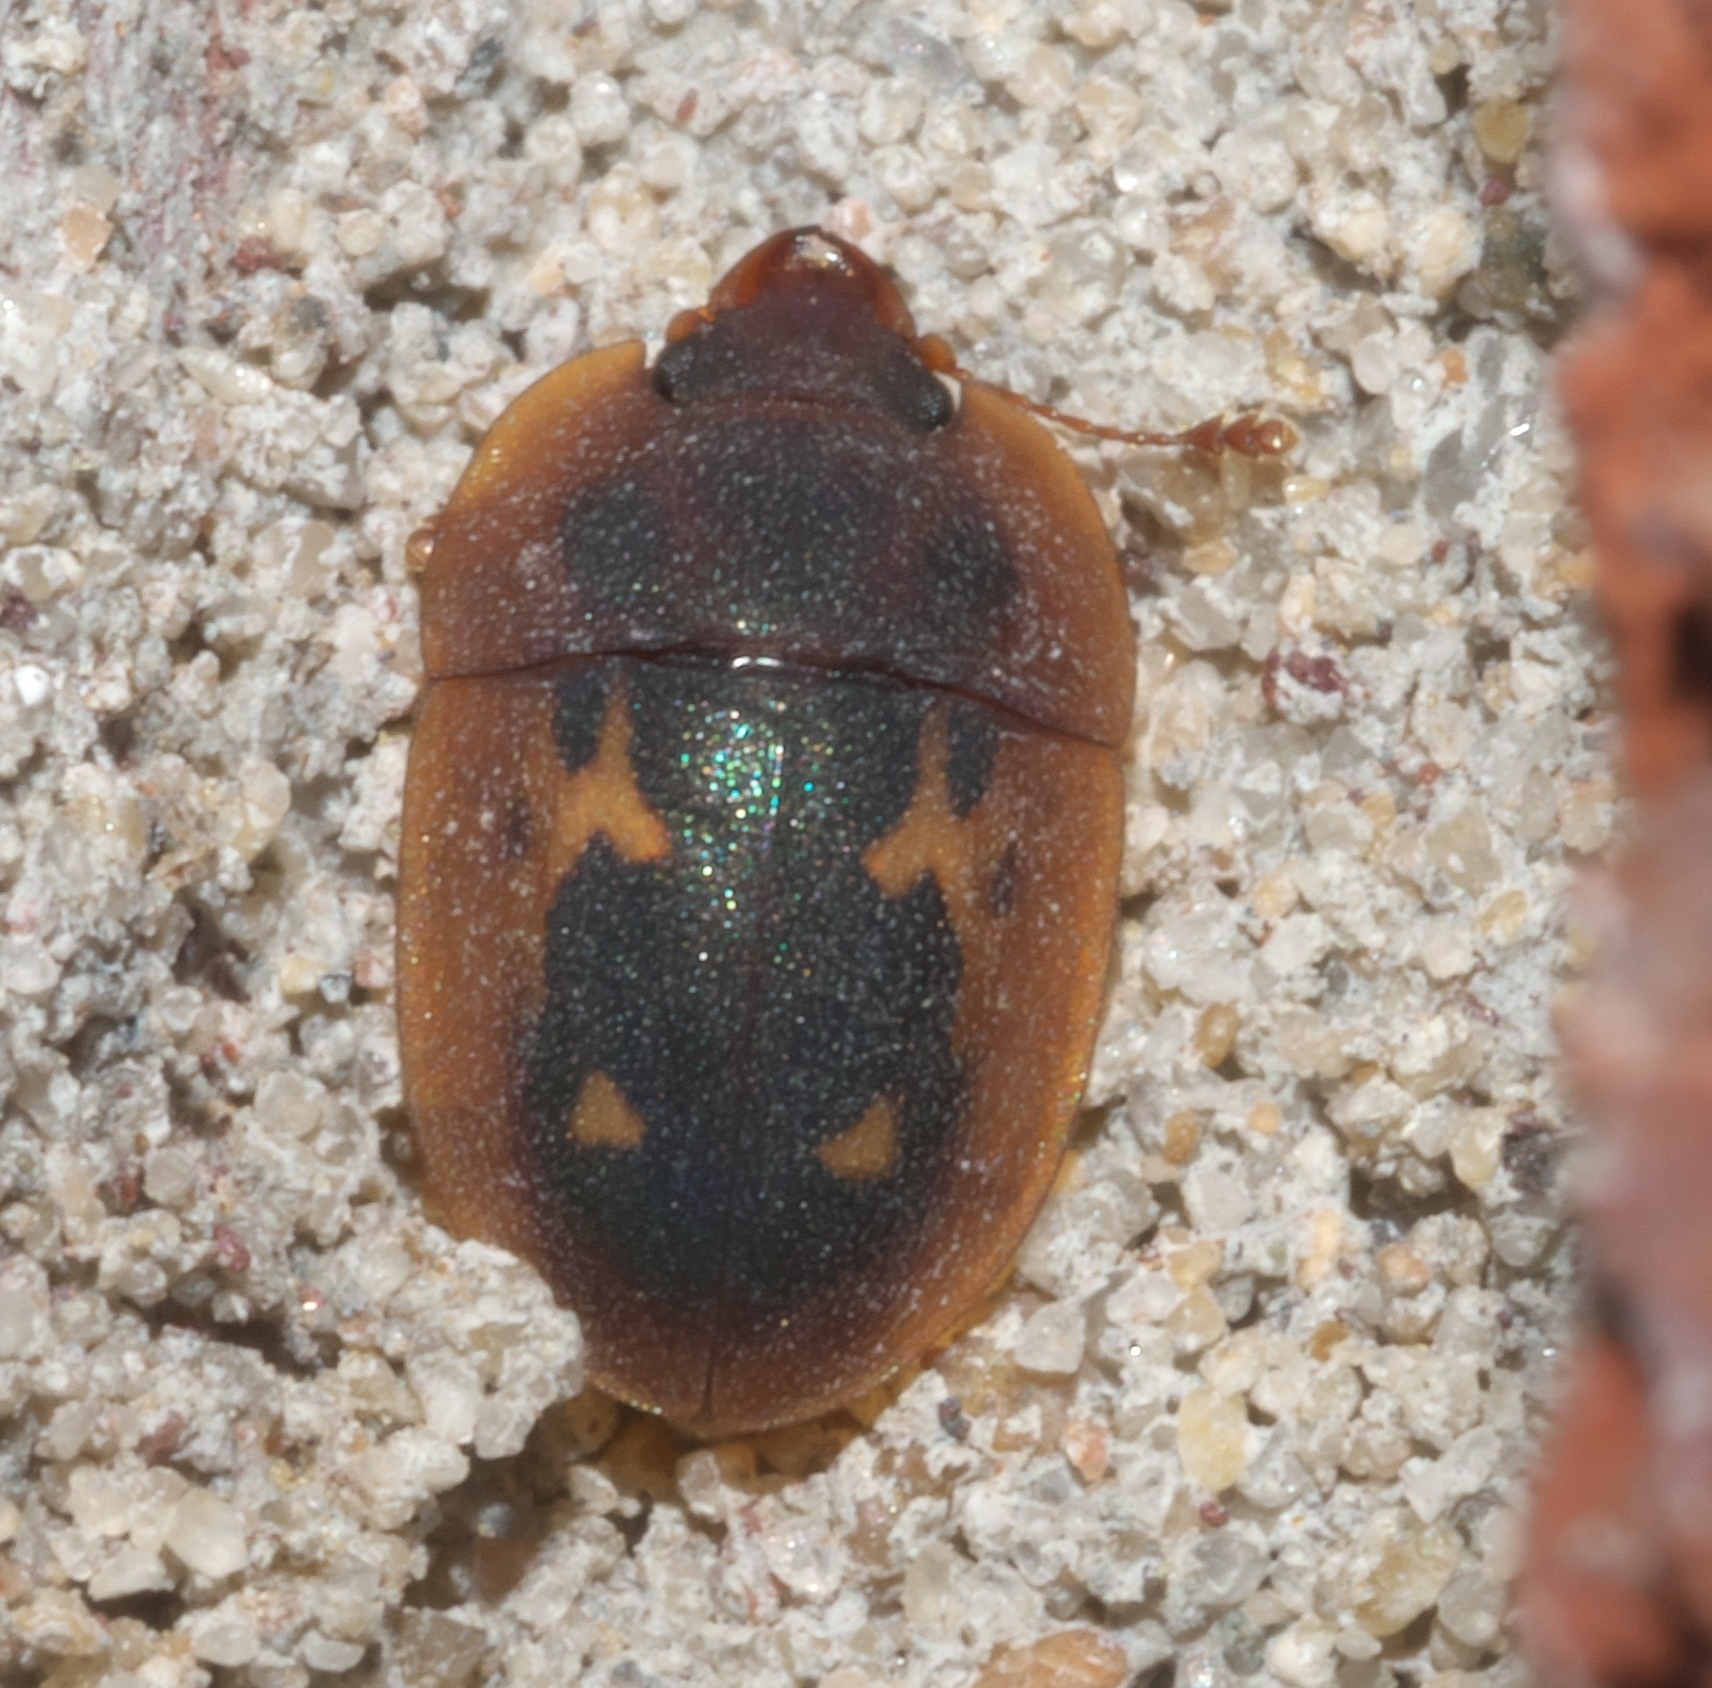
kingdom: Animalia
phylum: Arthropoda
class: Insecta
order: Coleoptera
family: Nitidulidae
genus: Prometopia
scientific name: Prometopia sexmaculata
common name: Six-spotted sap-feeding beetle
